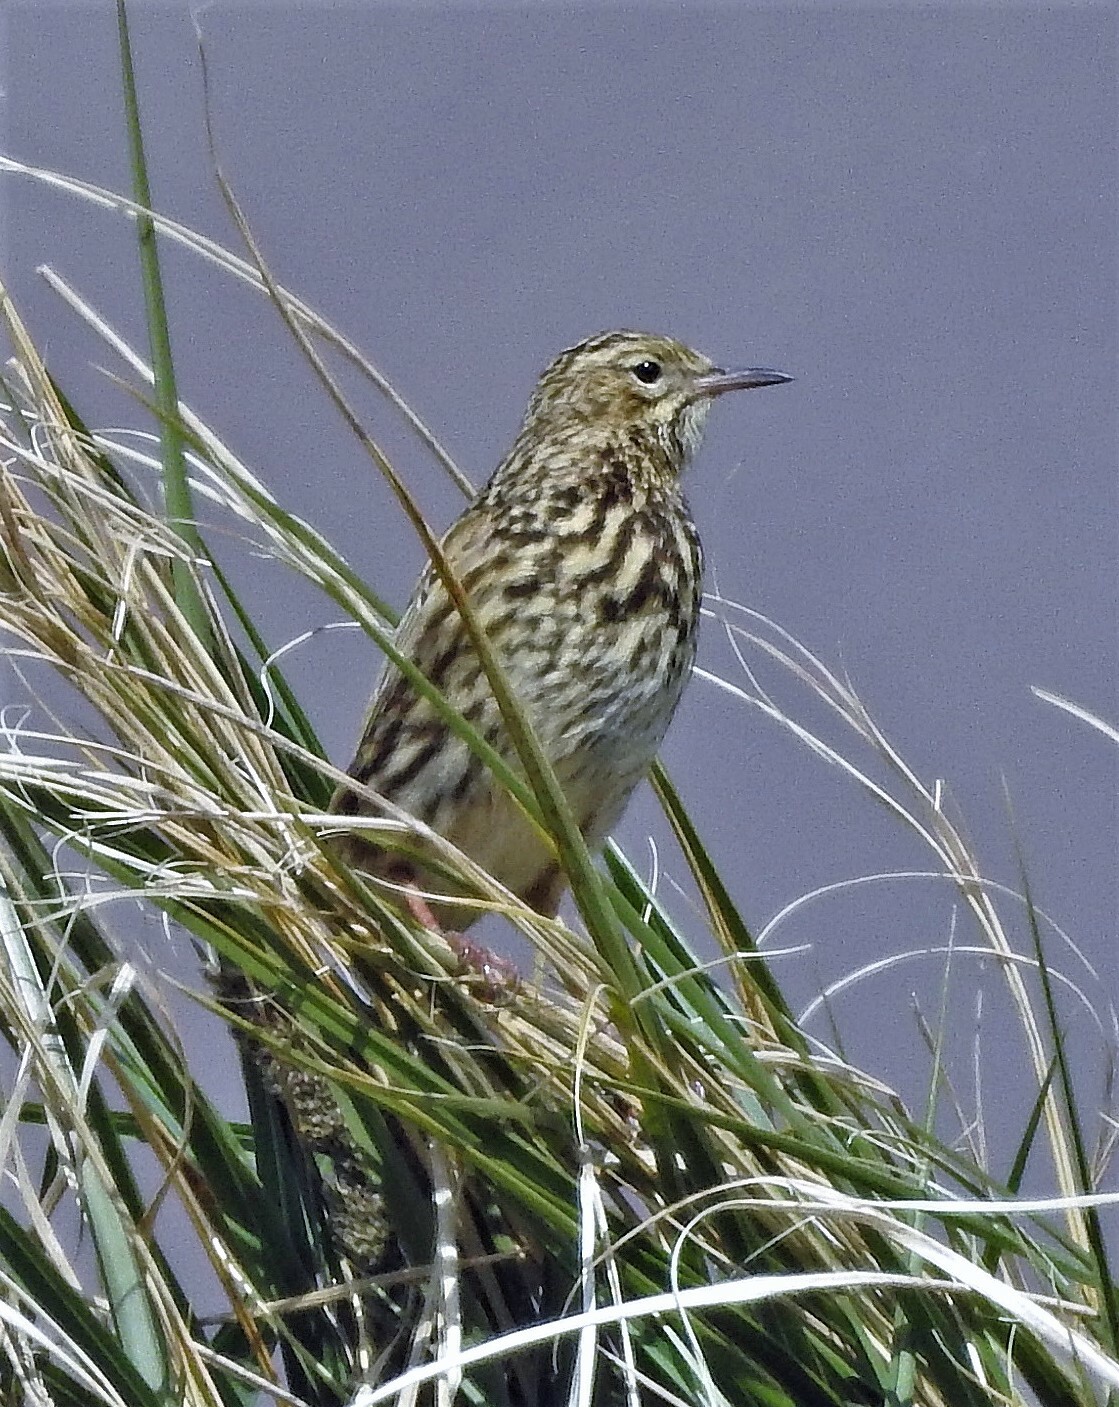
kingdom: Animalia
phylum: Chordata
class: Aves
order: Passeriformes
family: Motacillidae
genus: Anthus
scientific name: Anthus antarcticus
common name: South georgia pipit
